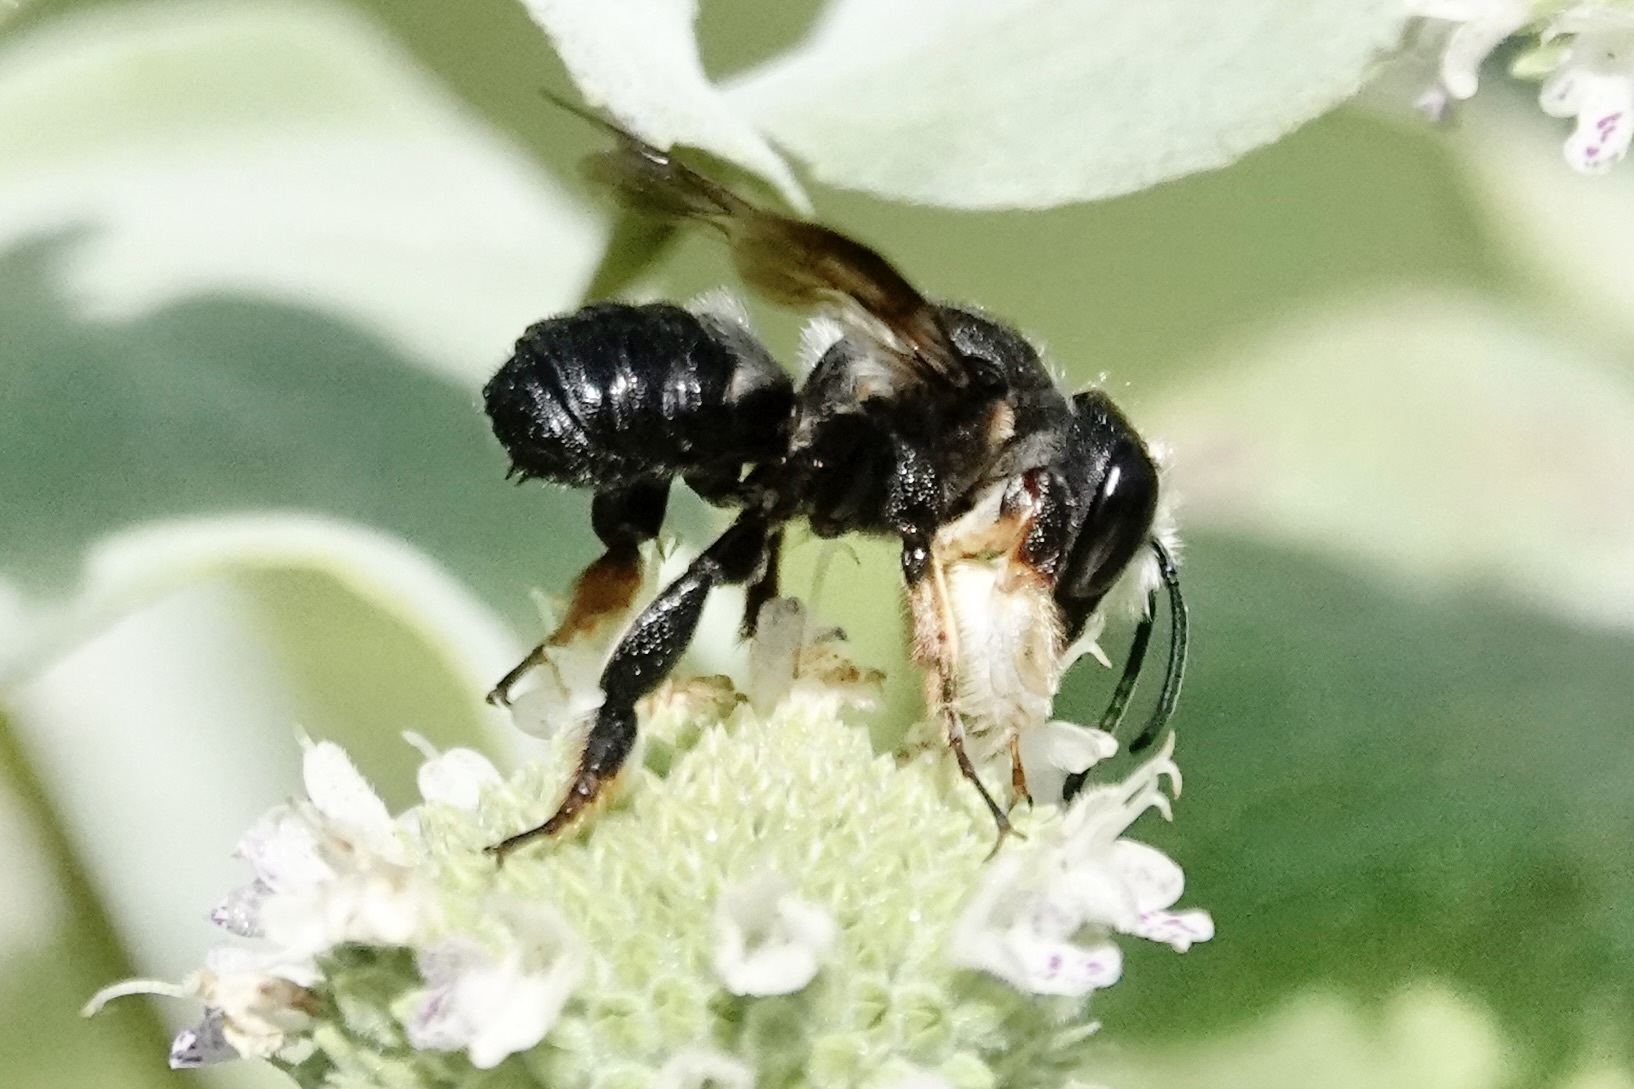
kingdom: Animalia
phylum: Arthropoda
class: Insecta
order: Hymenoptera
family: Megachilidae
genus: Megachile
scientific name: Megachile xylocopoides
